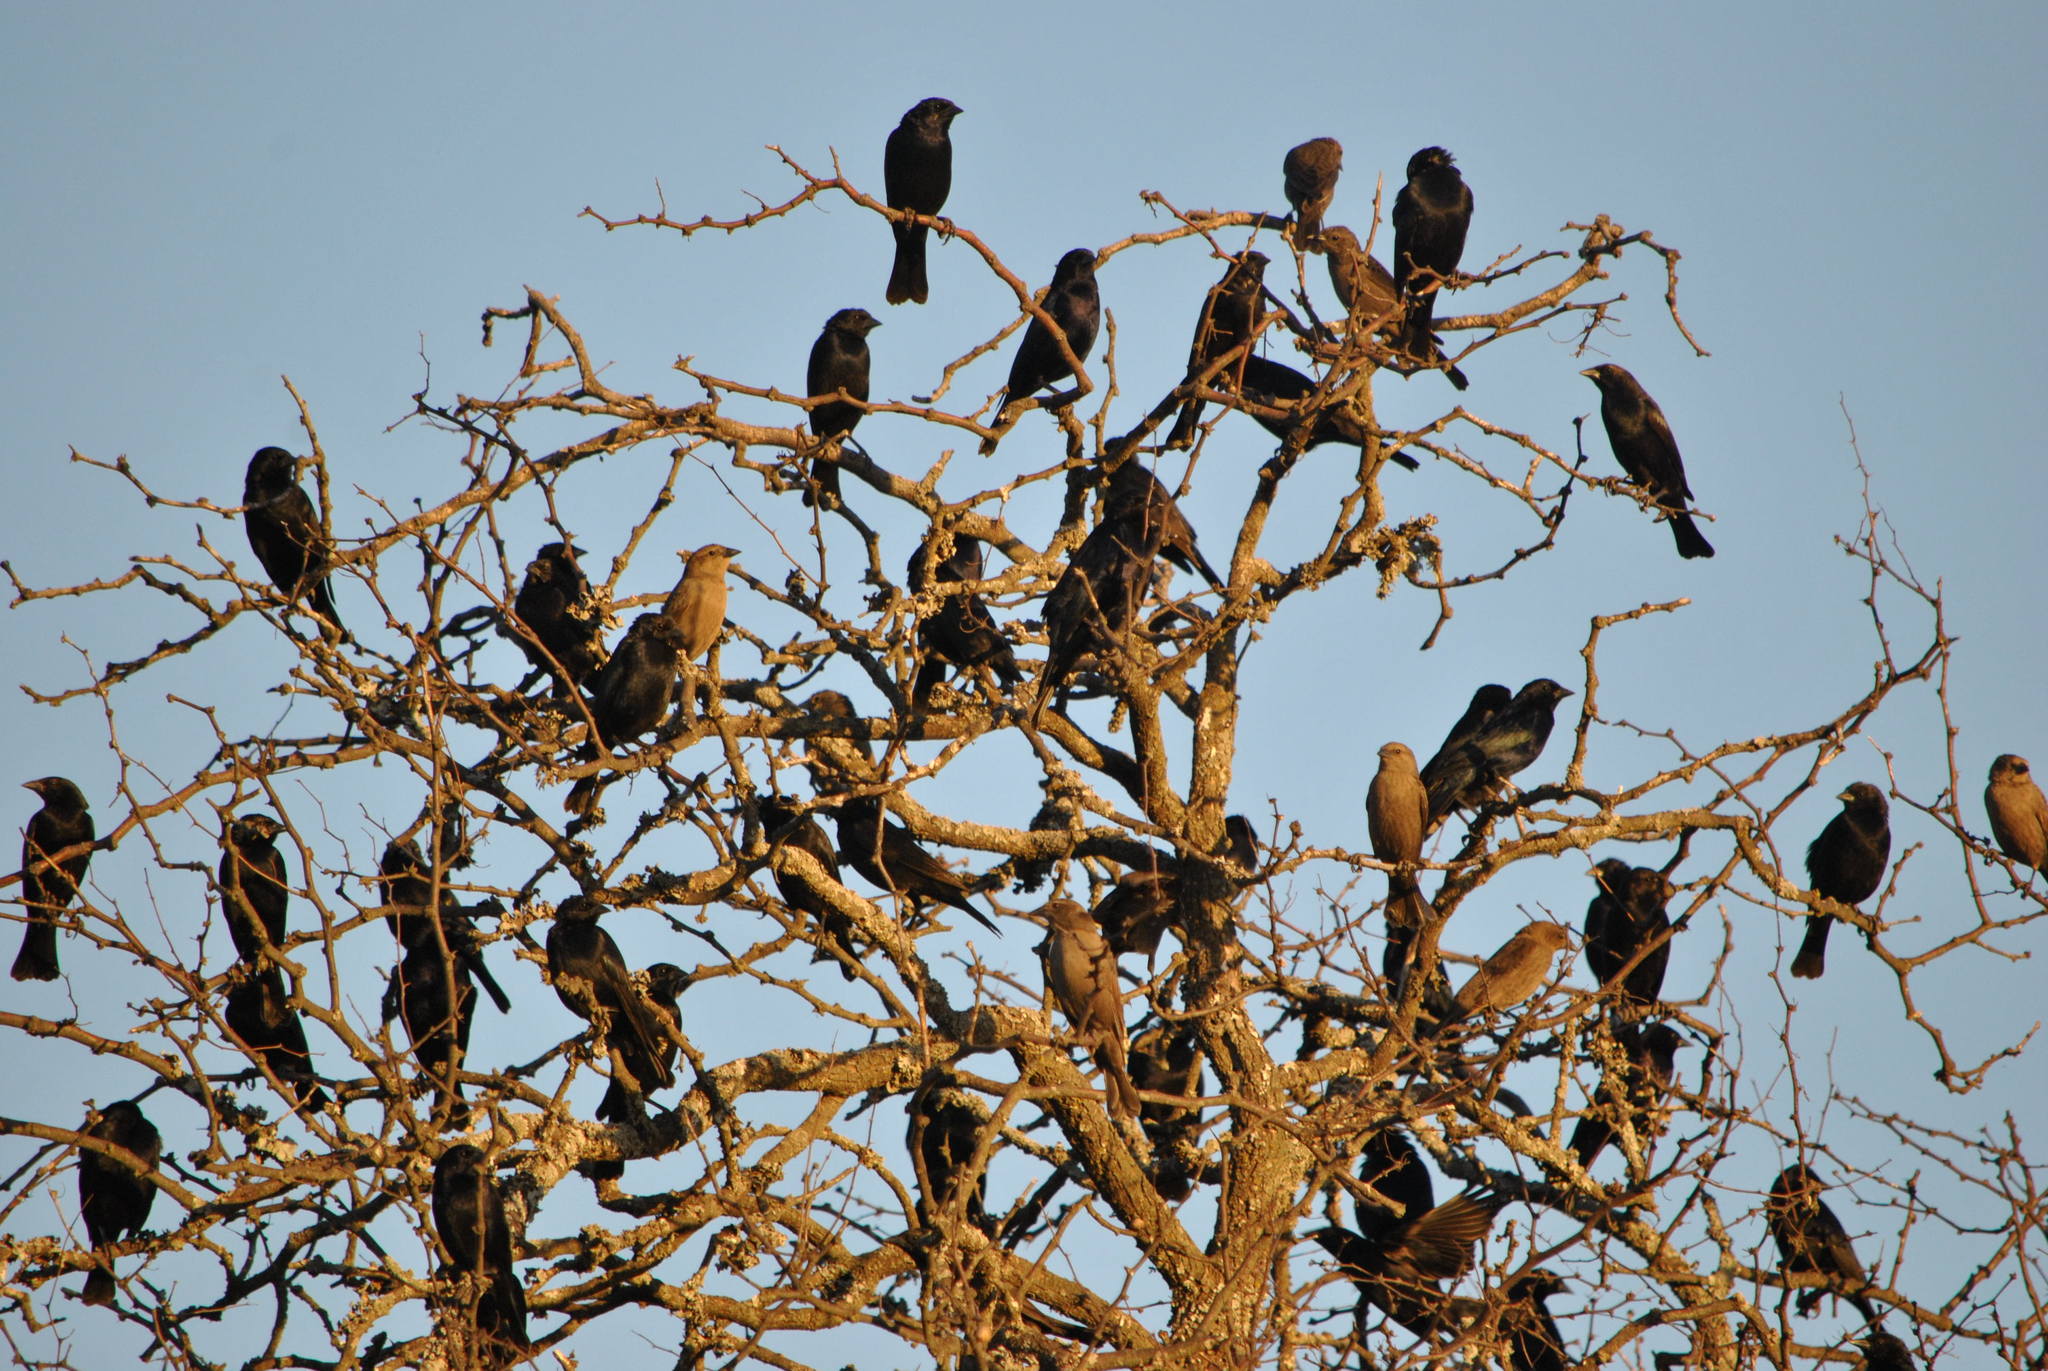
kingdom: Animalia
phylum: Chordata
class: Aves
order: Passeriformes
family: Icteridae
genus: Molothrus
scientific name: Molothrus bonariensis
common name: Shiny cowbird
